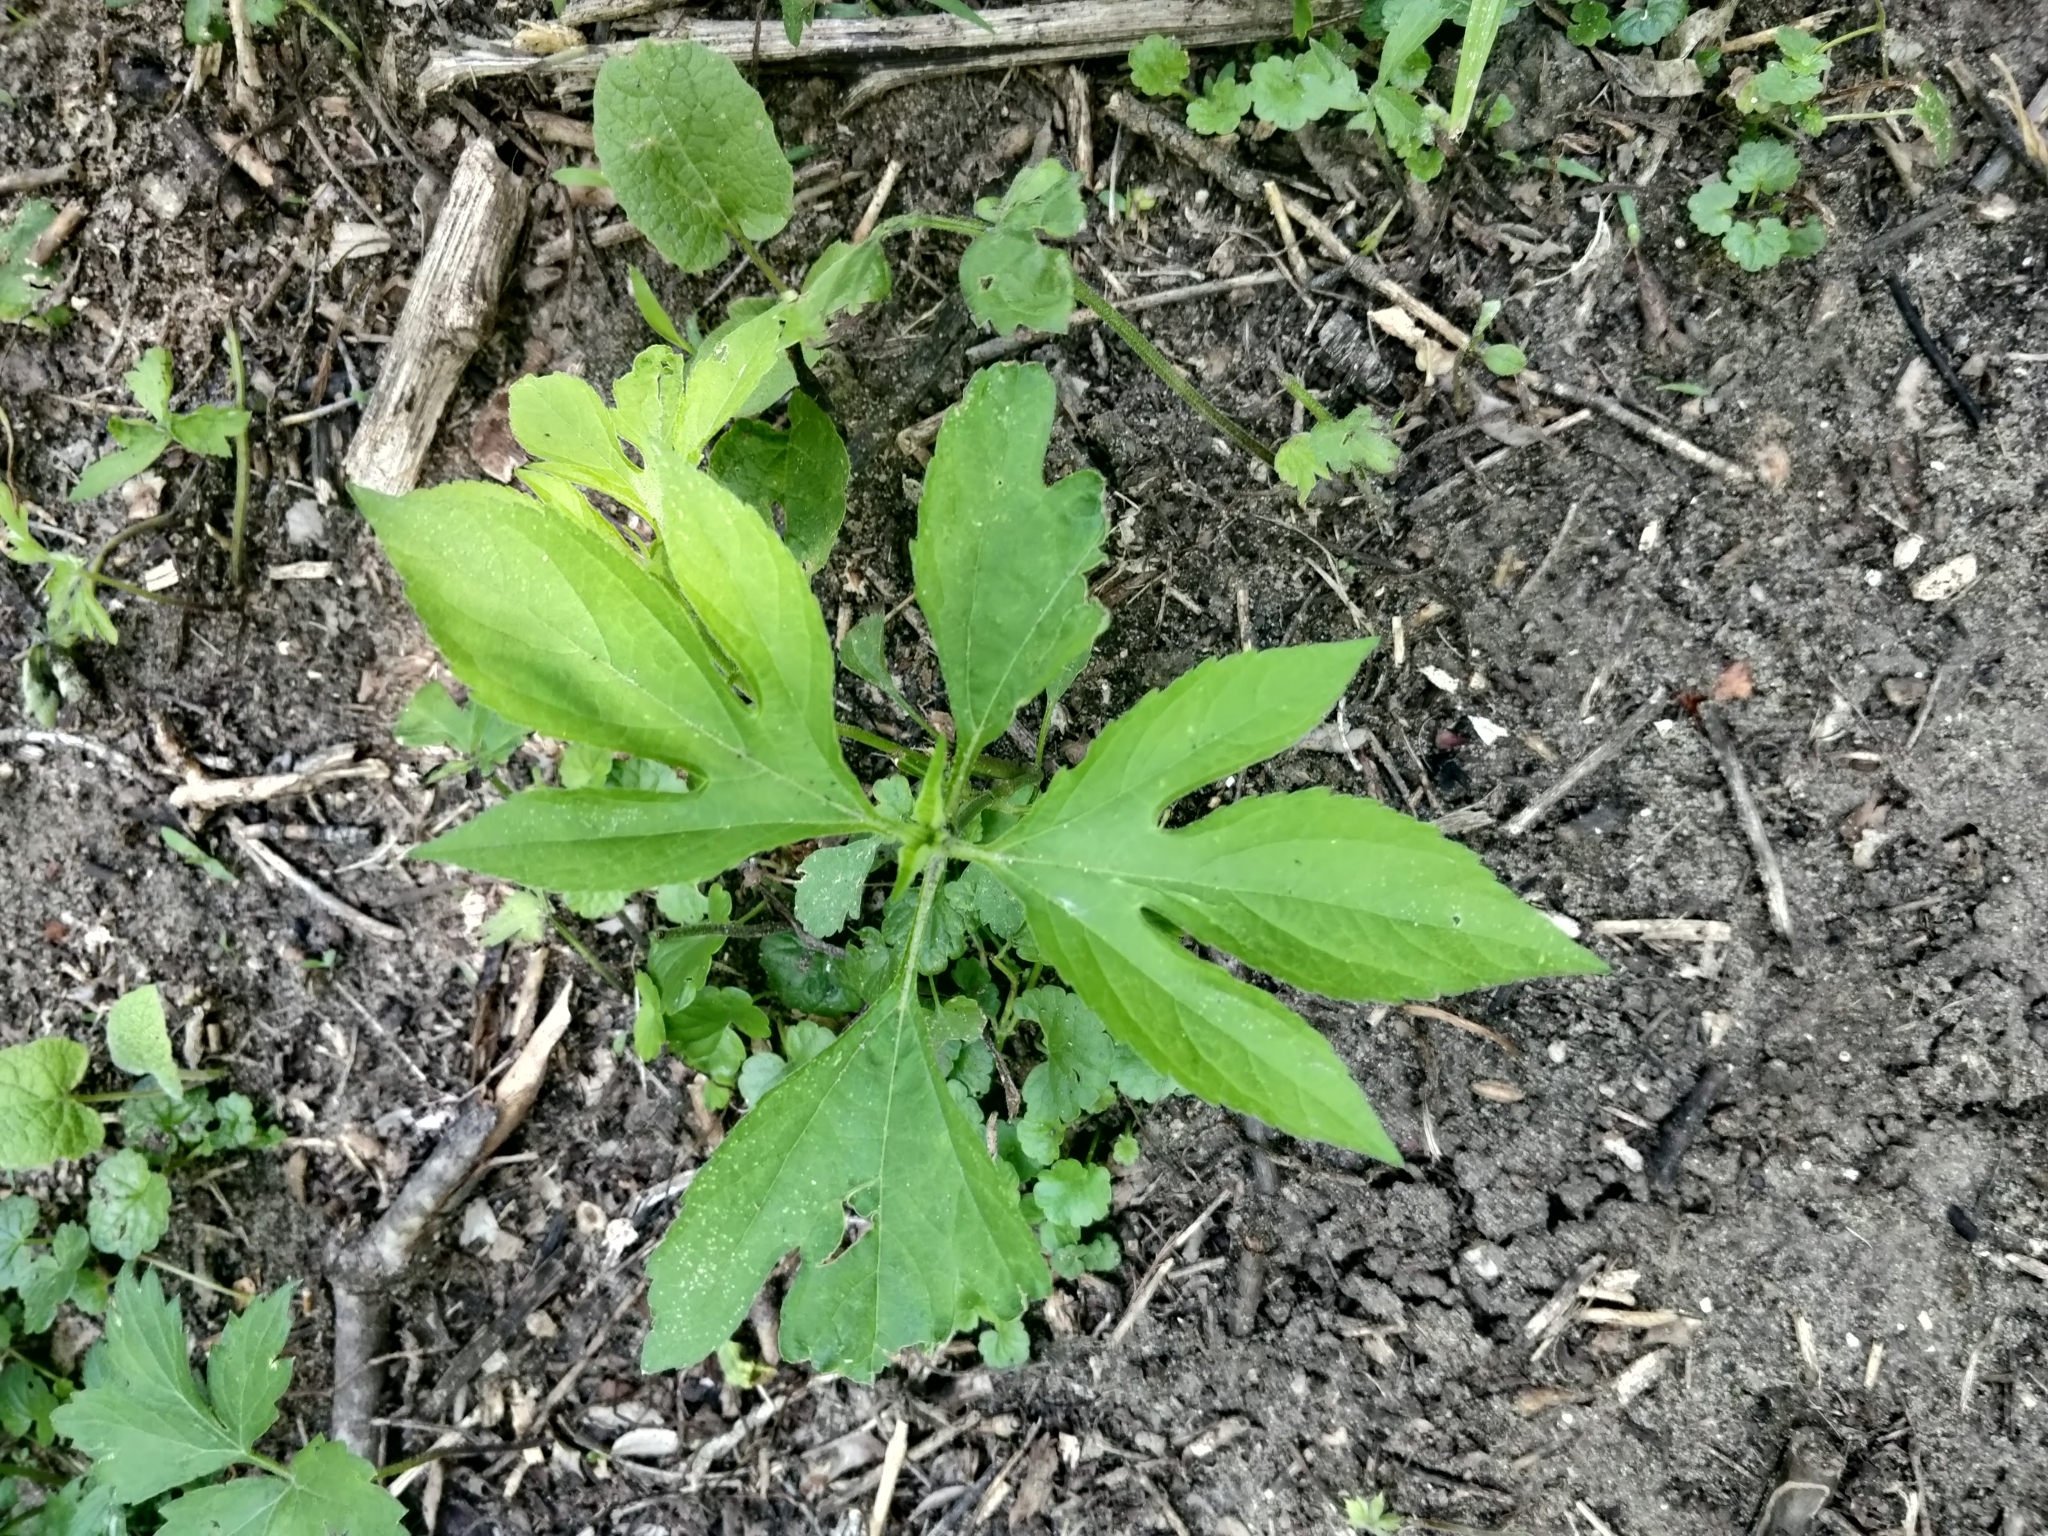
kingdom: Plantae
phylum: Tracheophyta
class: Magnoliopsida
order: Asterales
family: Asteraceae
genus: Ambrosia
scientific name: Ambrosia trifida
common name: Giant ragweed
